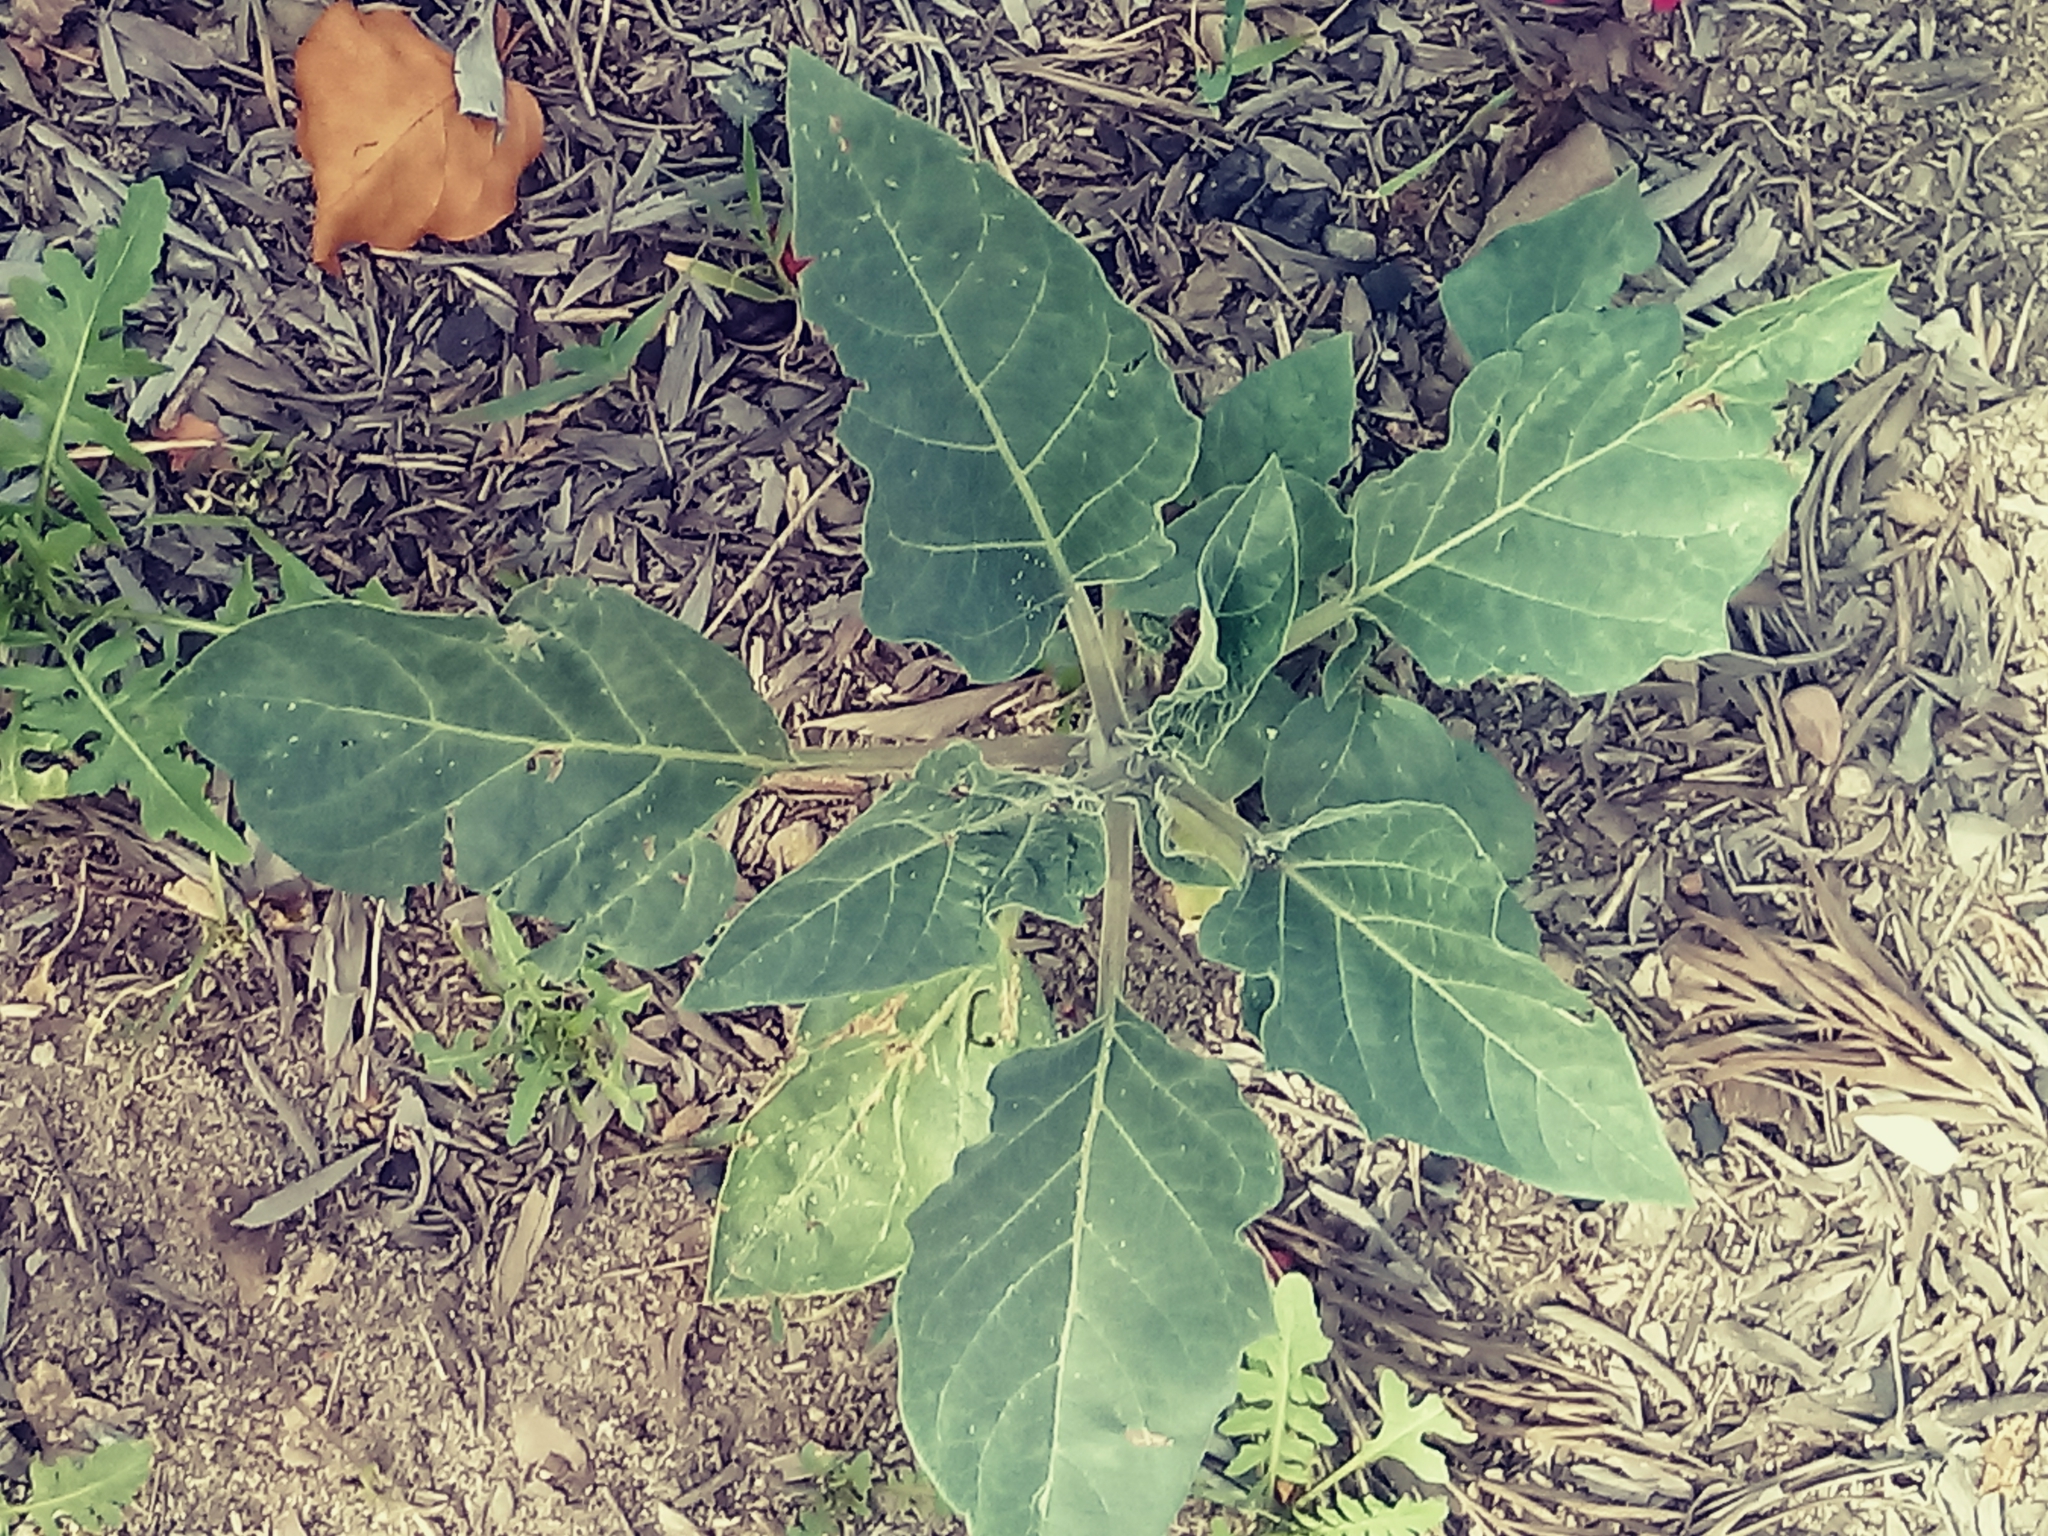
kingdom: Plantae
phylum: Tracheophyta
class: Magnoliopsida
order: Solanales
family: Solanaceae
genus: Datura
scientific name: Datura wrightii
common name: Sacred thorn-apple
